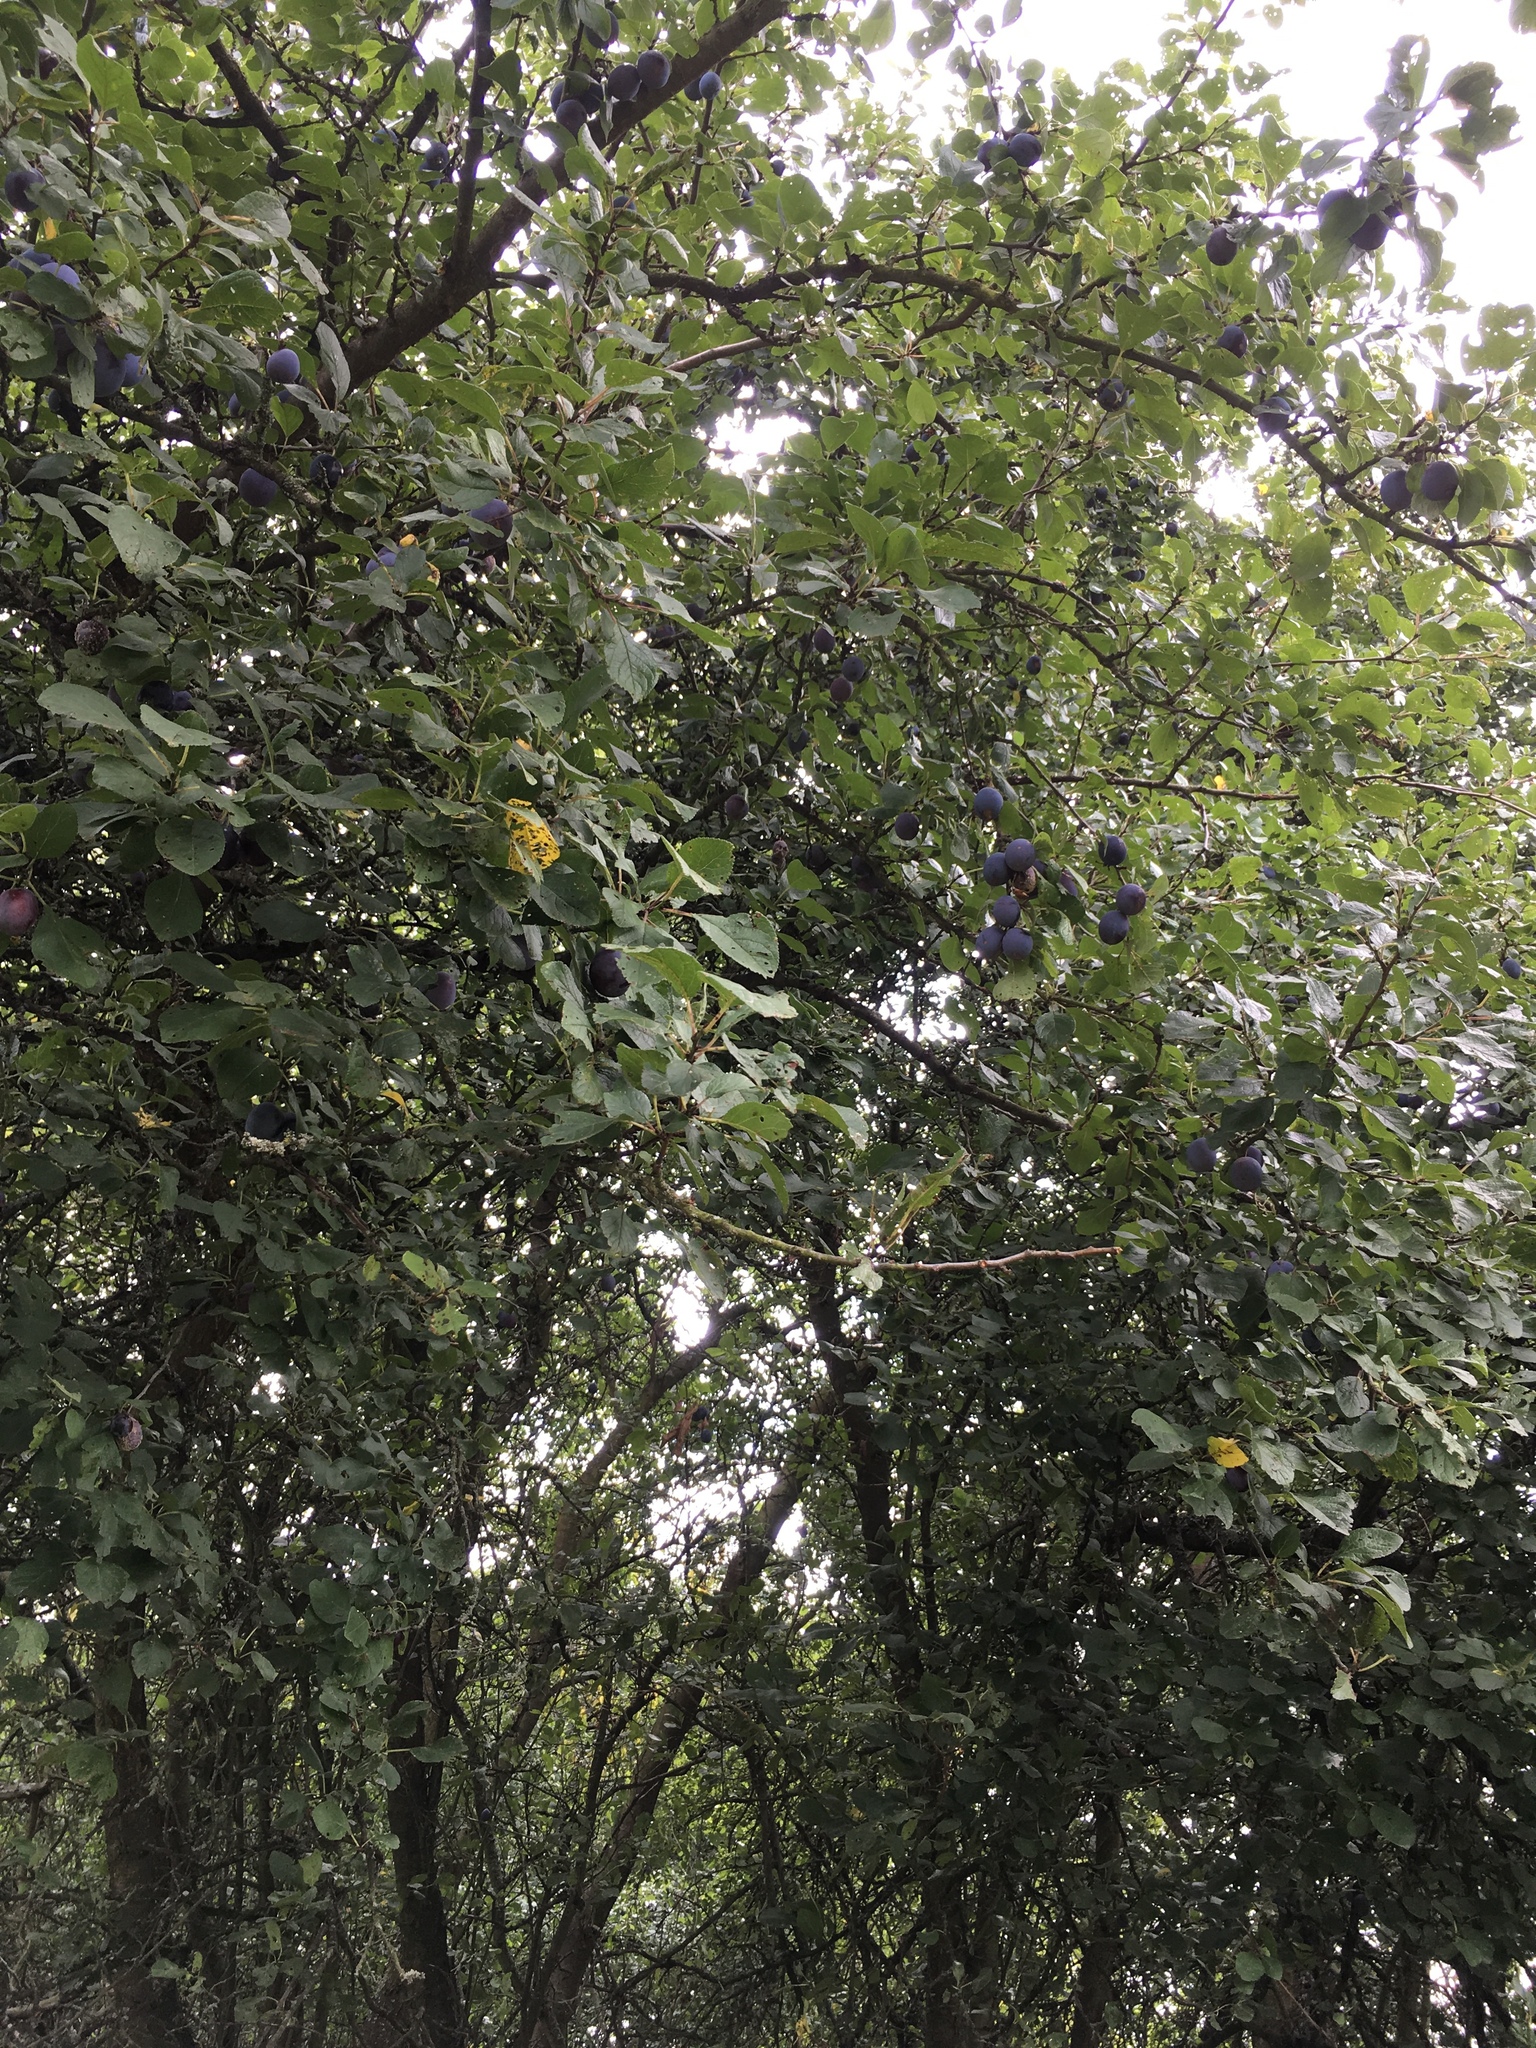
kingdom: Plantae
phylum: Tracheophyta
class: Magnoliopsida
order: Rosales
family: Rosaceae
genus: Prunus
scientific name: Prunus domestica
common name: Wild plum
